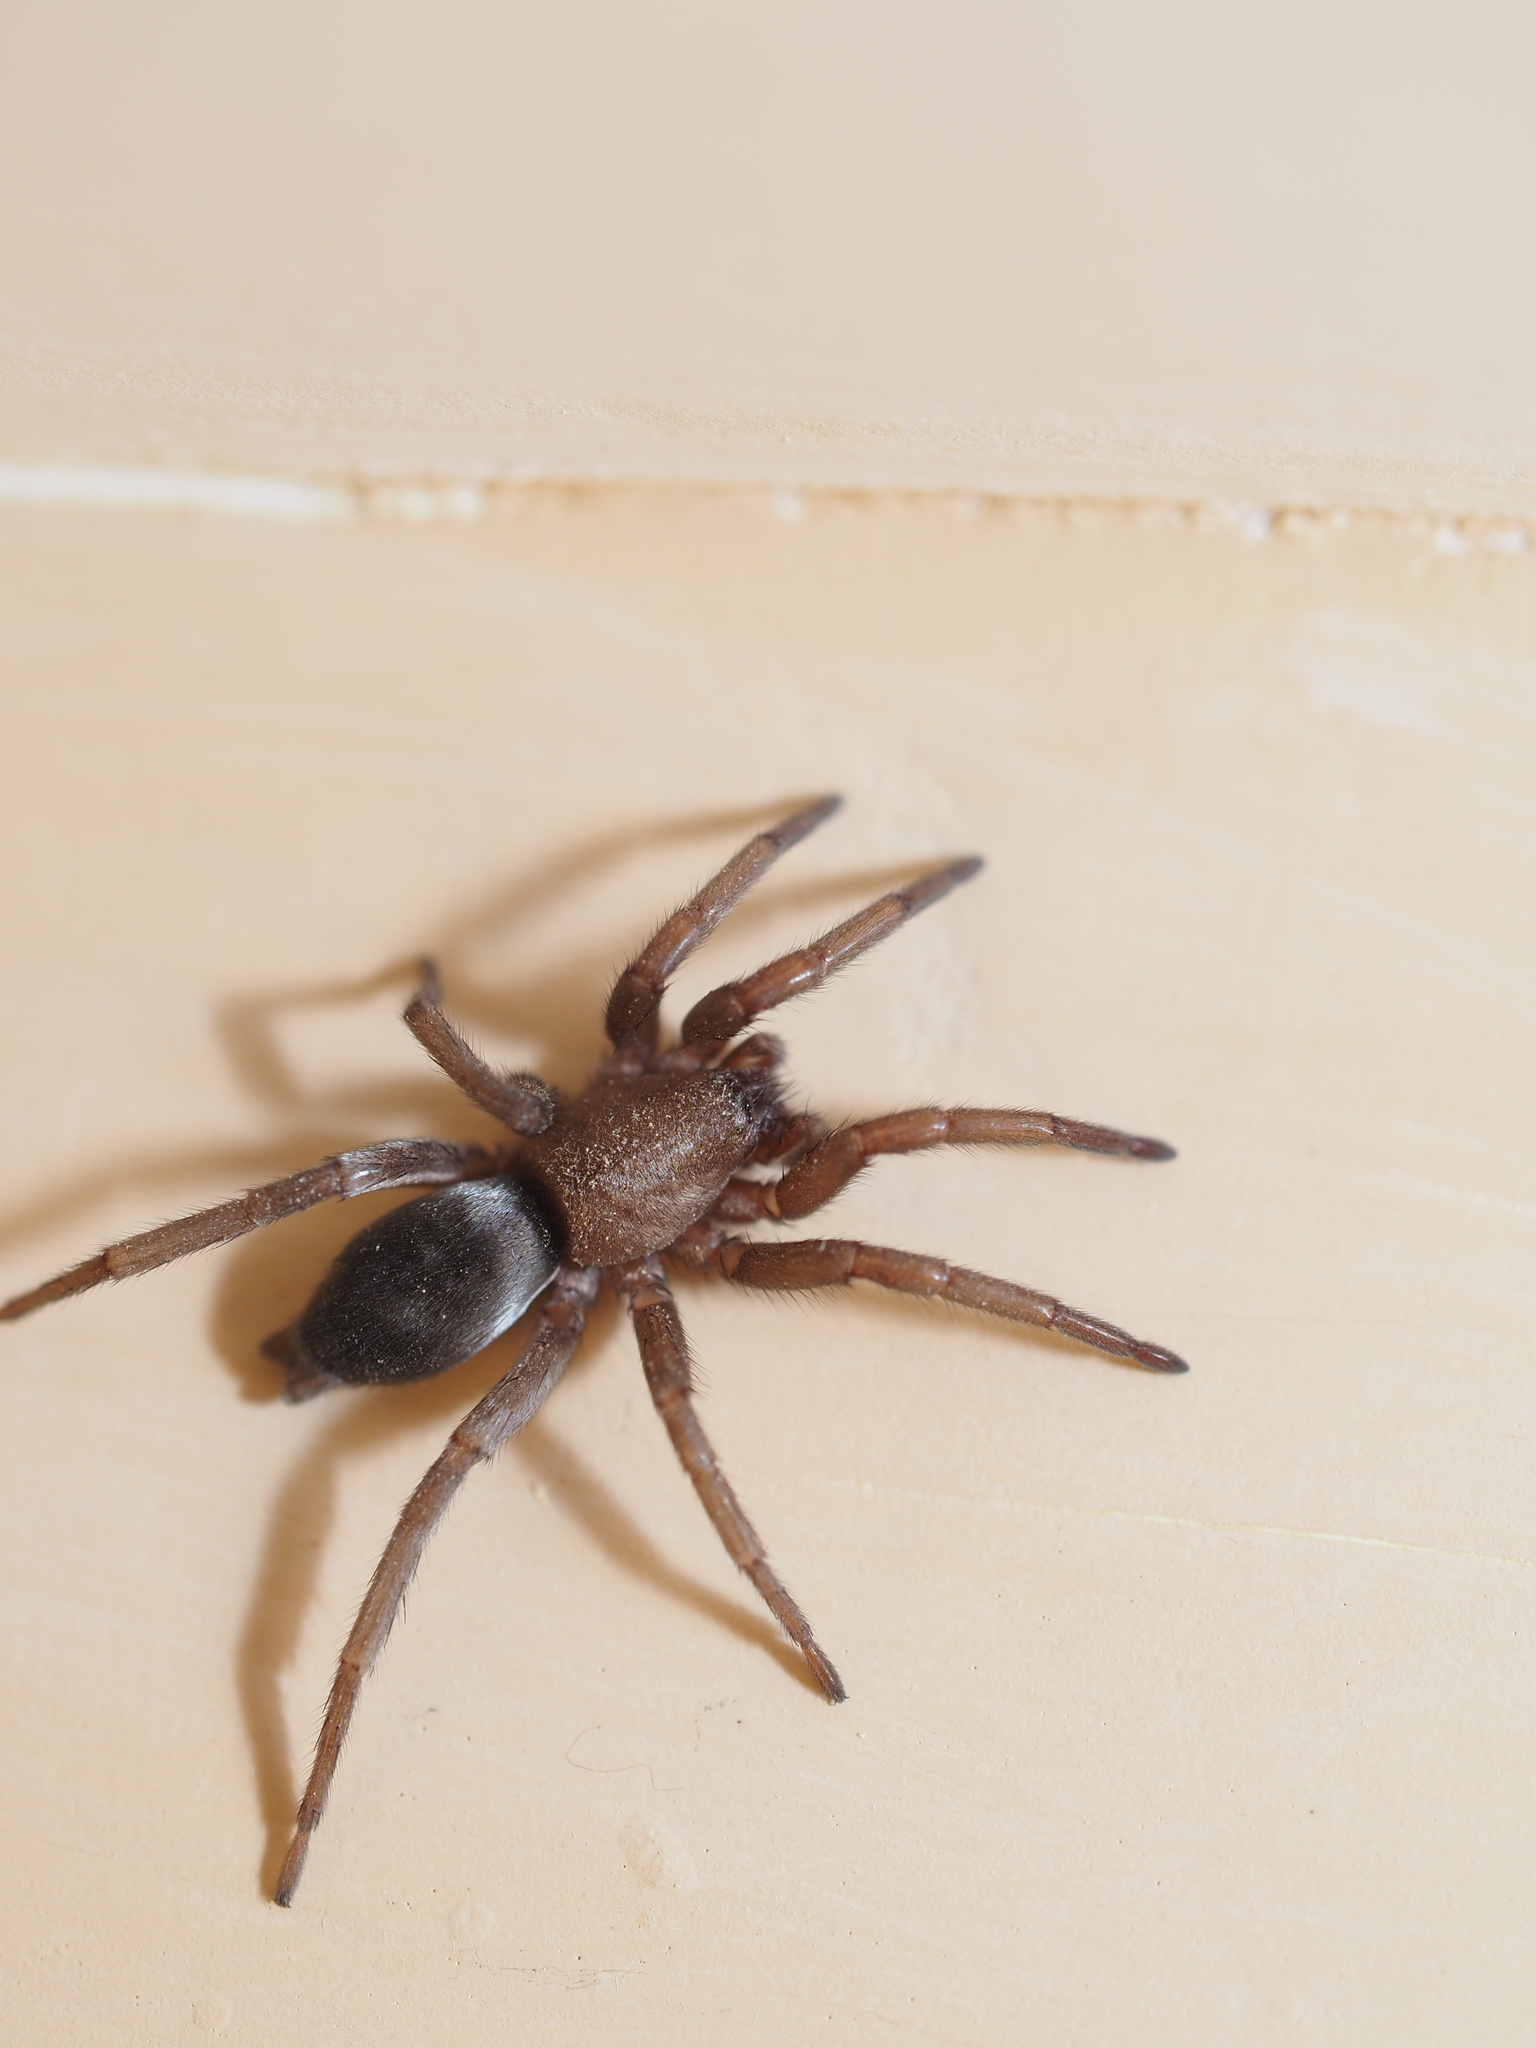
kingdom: Animalia
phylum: Arthropoda
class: Arachnida
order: Araneae
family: Gnaphosidae
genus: Scotophaeus
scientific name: Scotophaeus blackwalli
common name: Mouse spider
